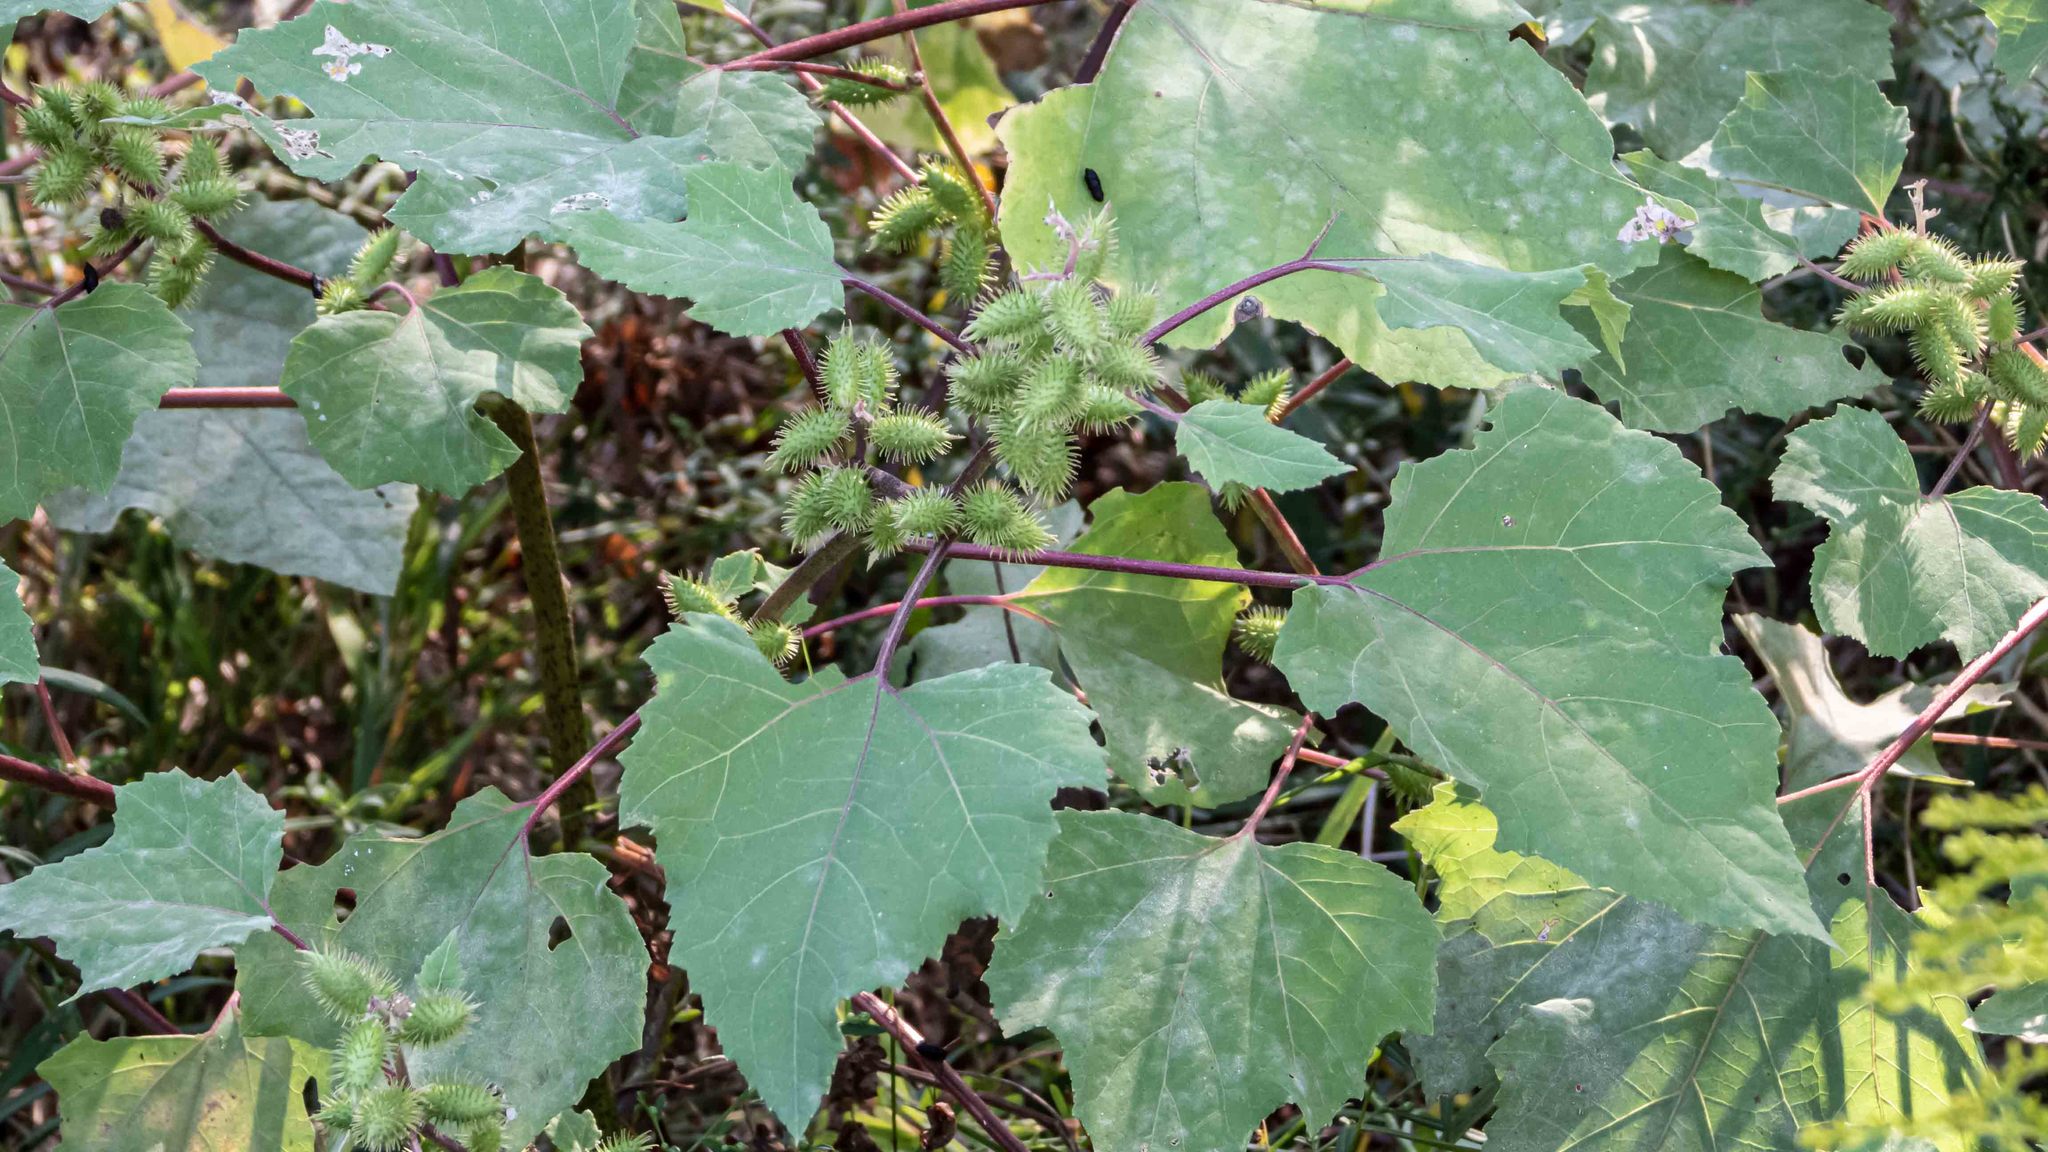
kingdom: Plantae
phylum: Tracheophyta
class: Magnoliopsida
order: Asterales
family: Asteraceae
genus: Xanthium
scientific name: Xanthium strumarium
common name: Rough cocklebur
